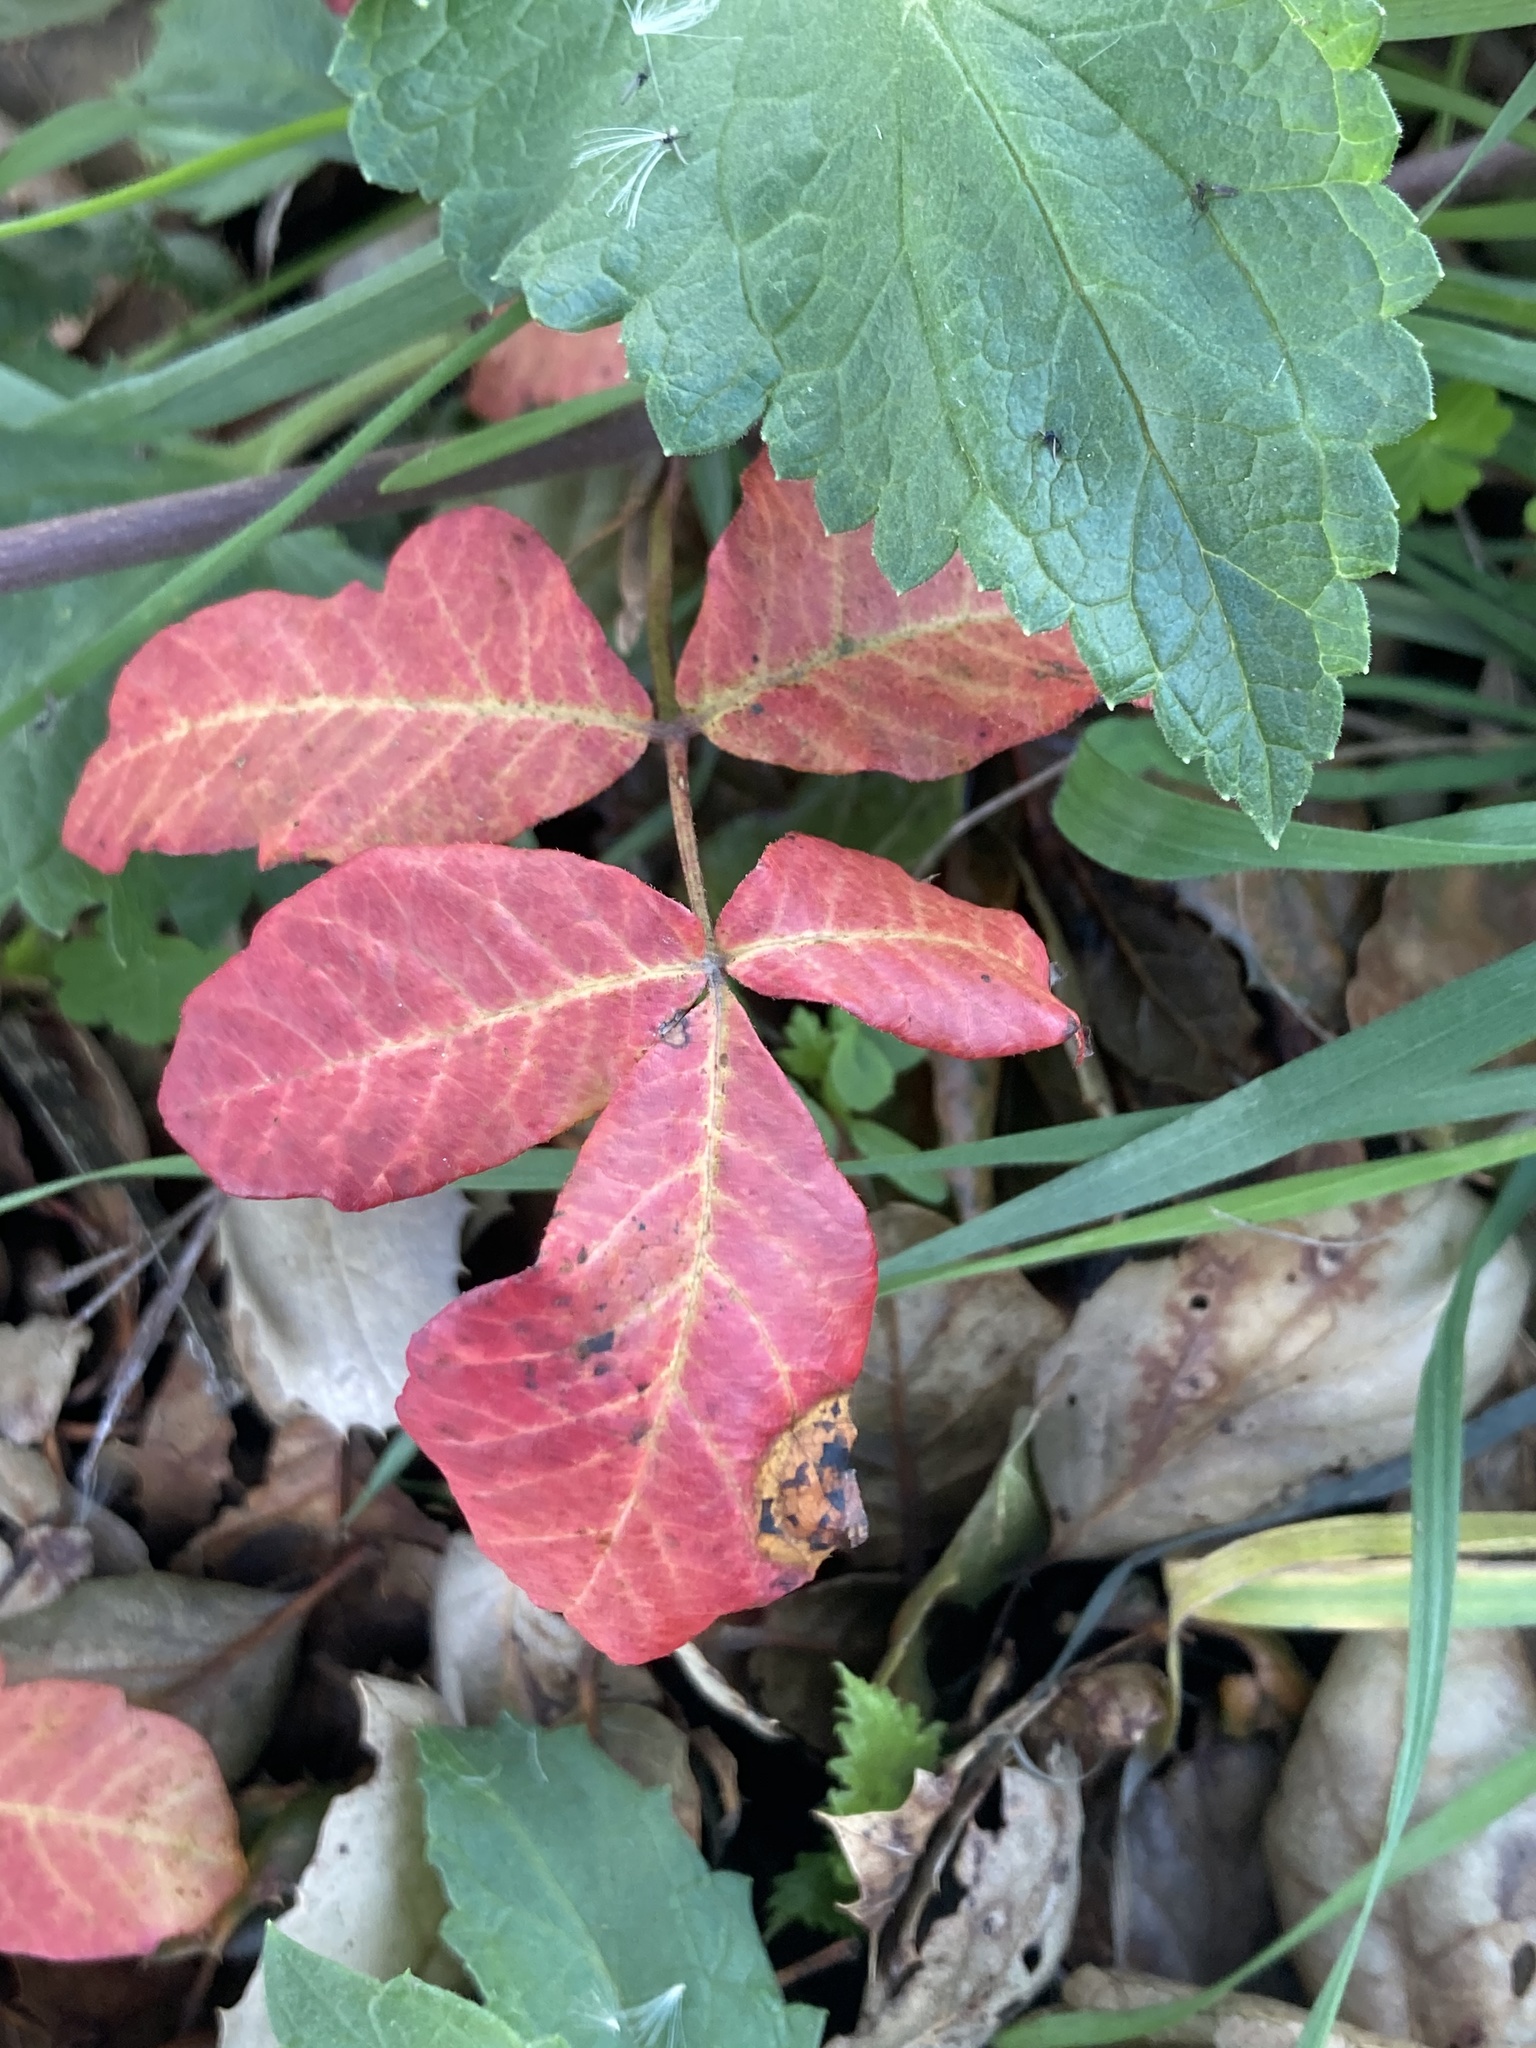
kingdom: Plantae
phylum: Tracheophyta
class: Magnoliopsida
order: Sapindales
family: Anacardiaceae
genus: Toxicodendron
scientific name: Toxicodendron diversilobum
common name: Pacific poison-oak
